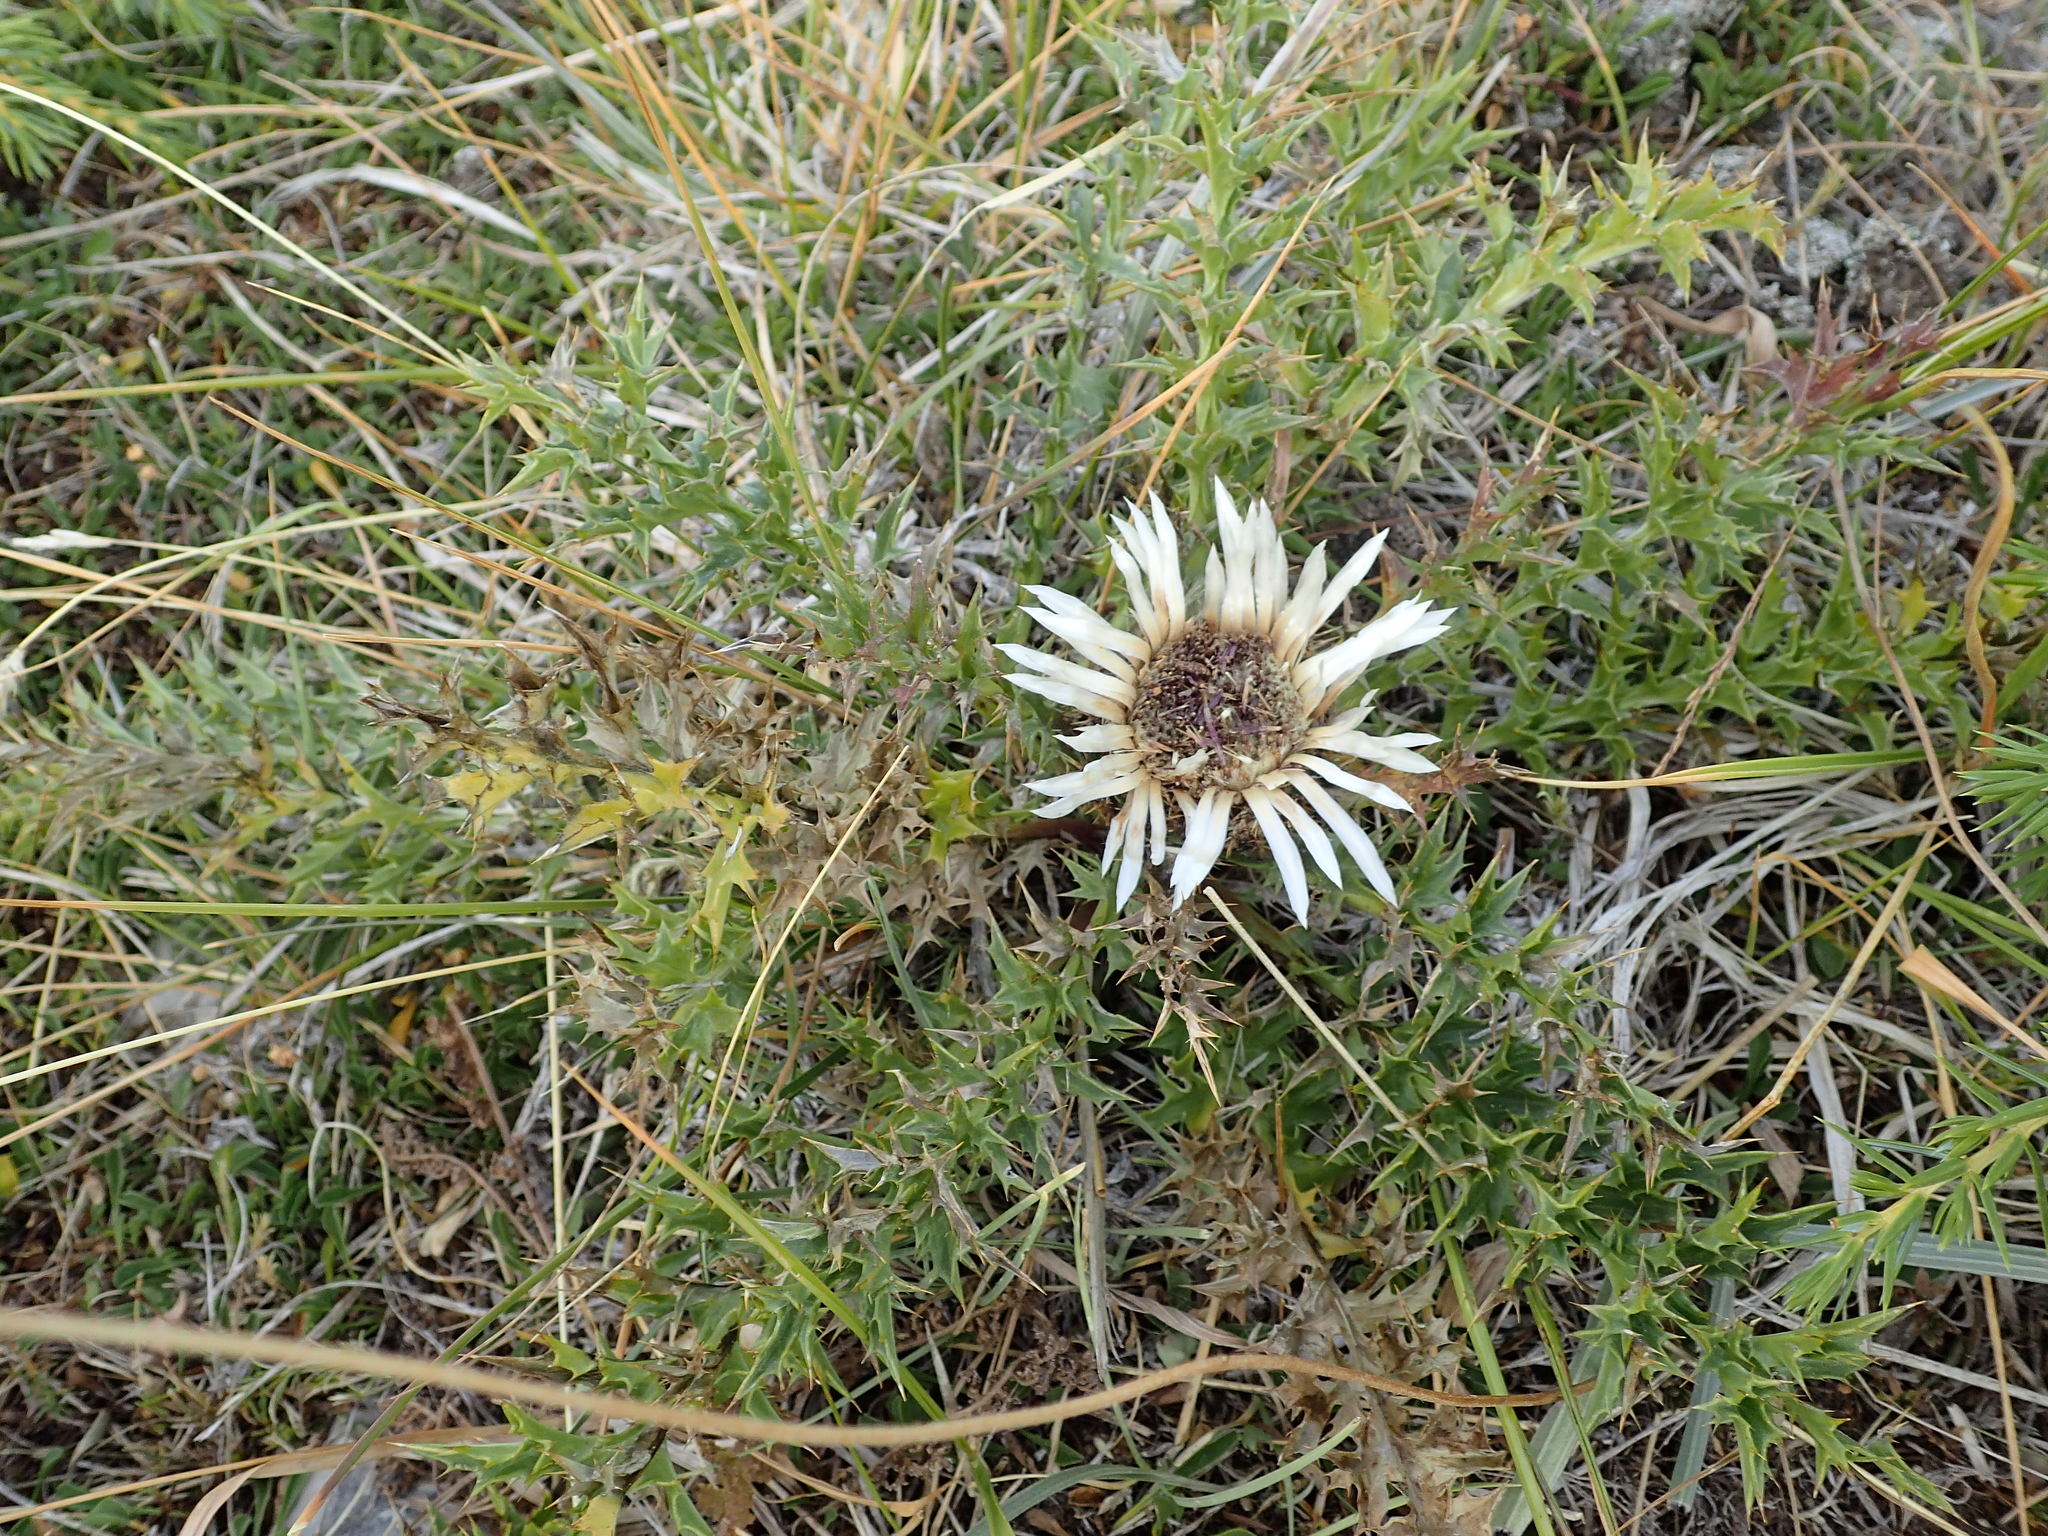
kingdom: Plantae
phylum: Tracheophyta
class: Magnoliopsida
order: Asterales
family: Asteraceae
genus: Carlina
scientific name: Carlina acaulis
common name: Stemless carline thistle
